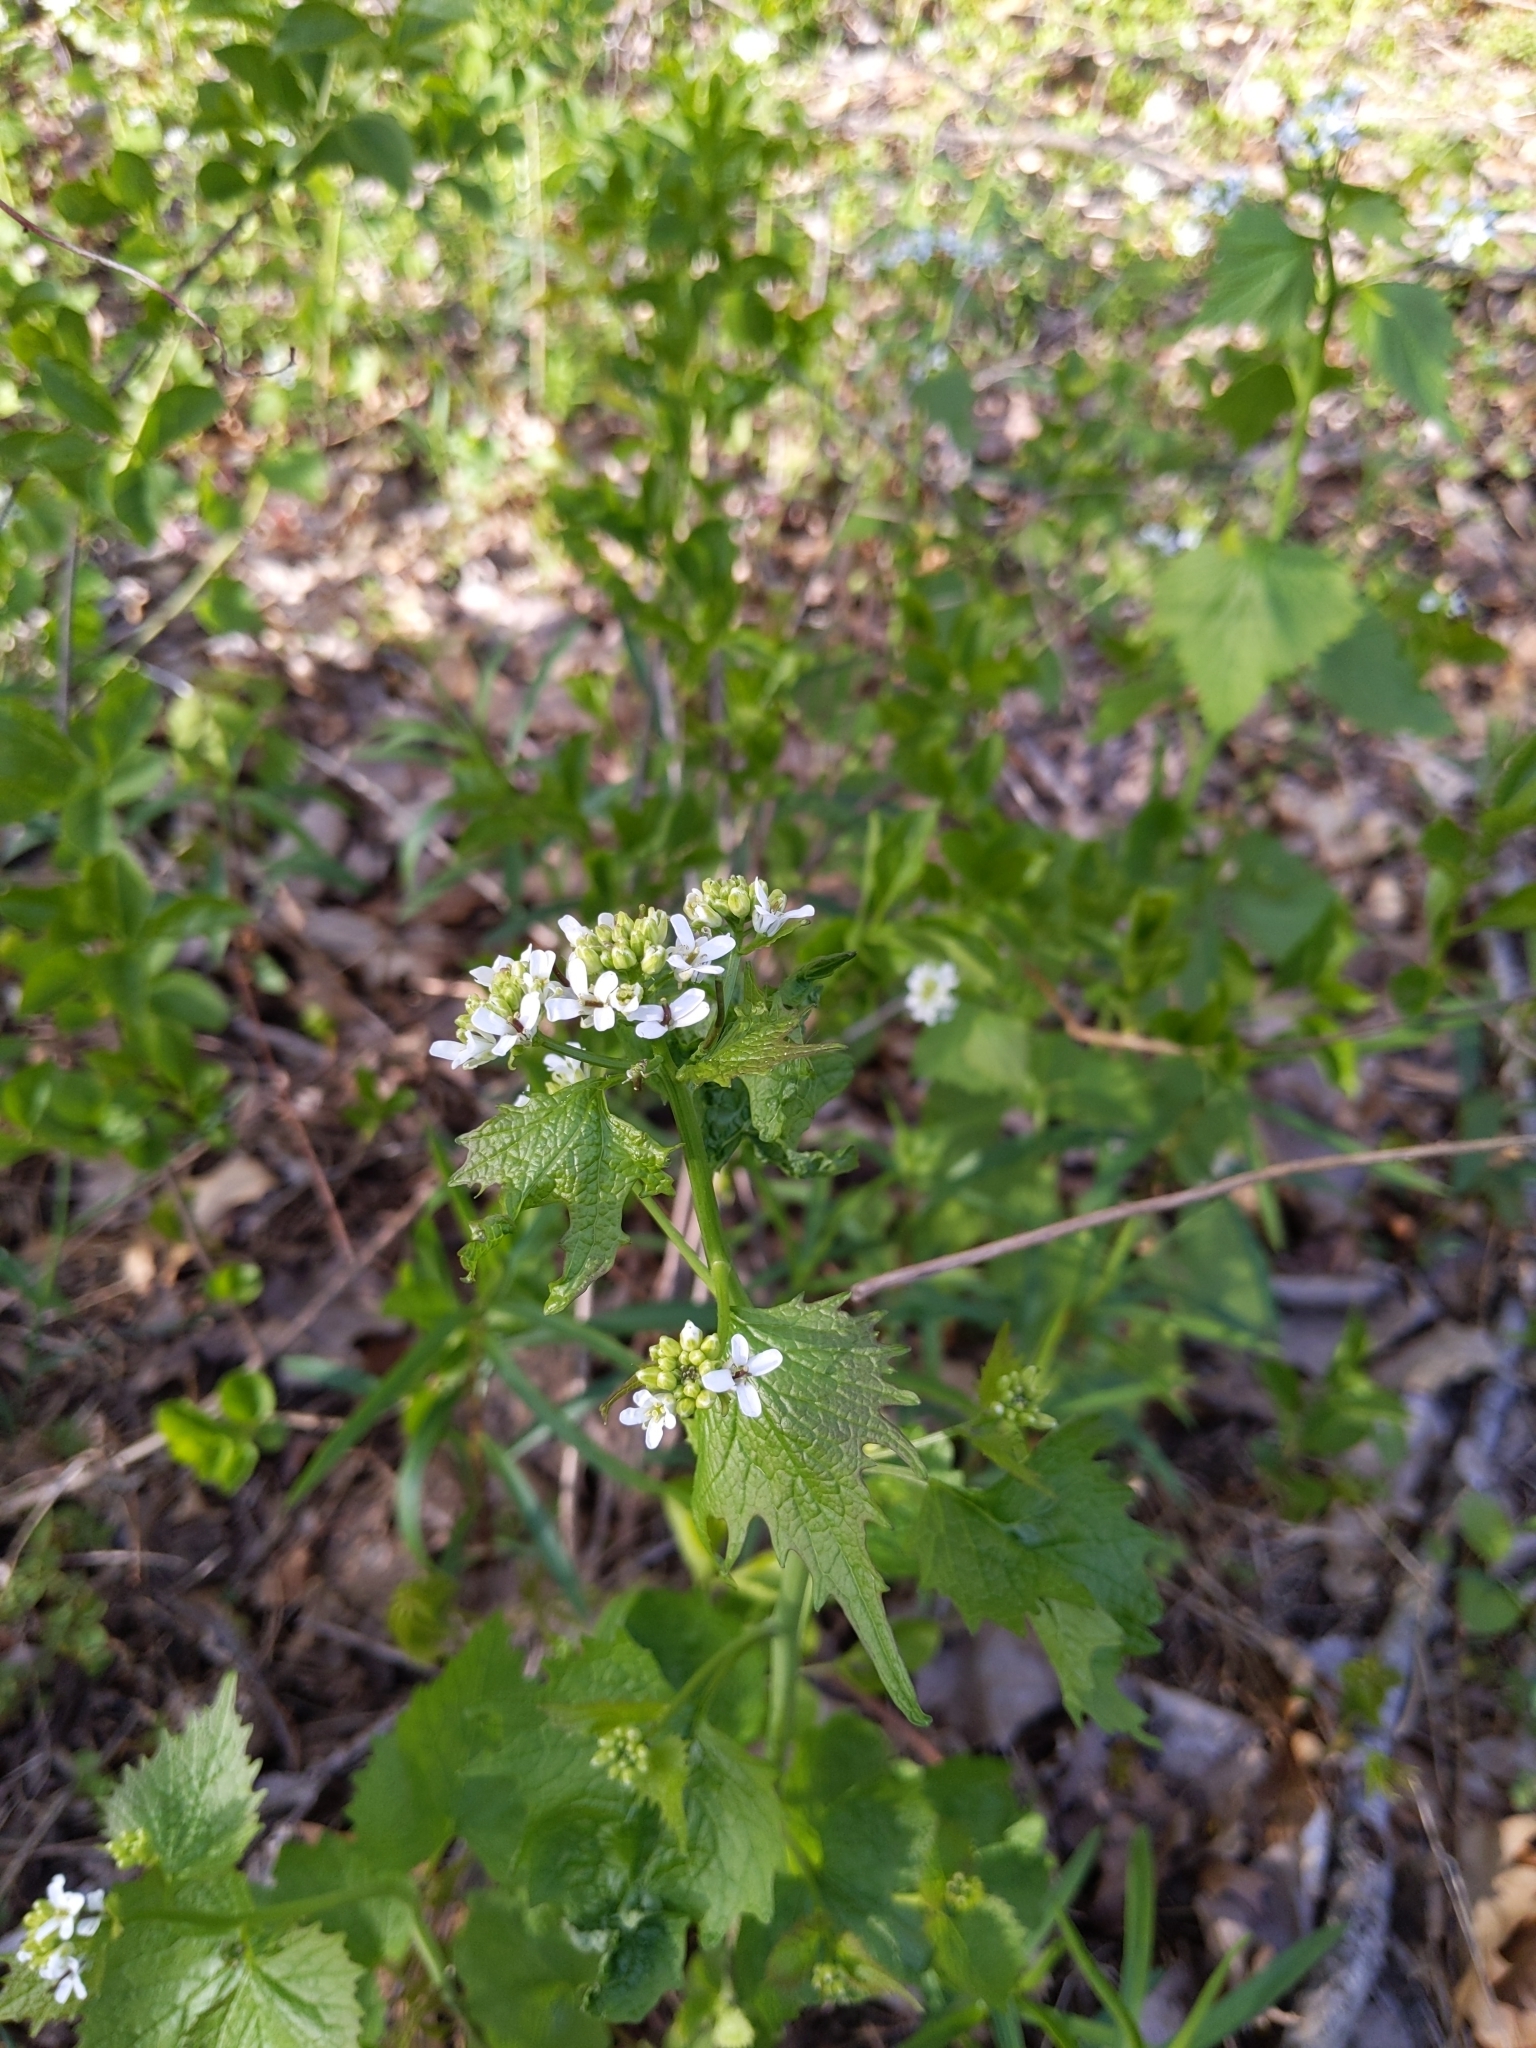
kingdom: Plantae
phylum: Tracheophyta
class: Magnoliopsida
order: Brassicales
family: Brassicaceae
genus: Alliaria
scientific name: Alliaria petiolata
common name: Garlic mustard
